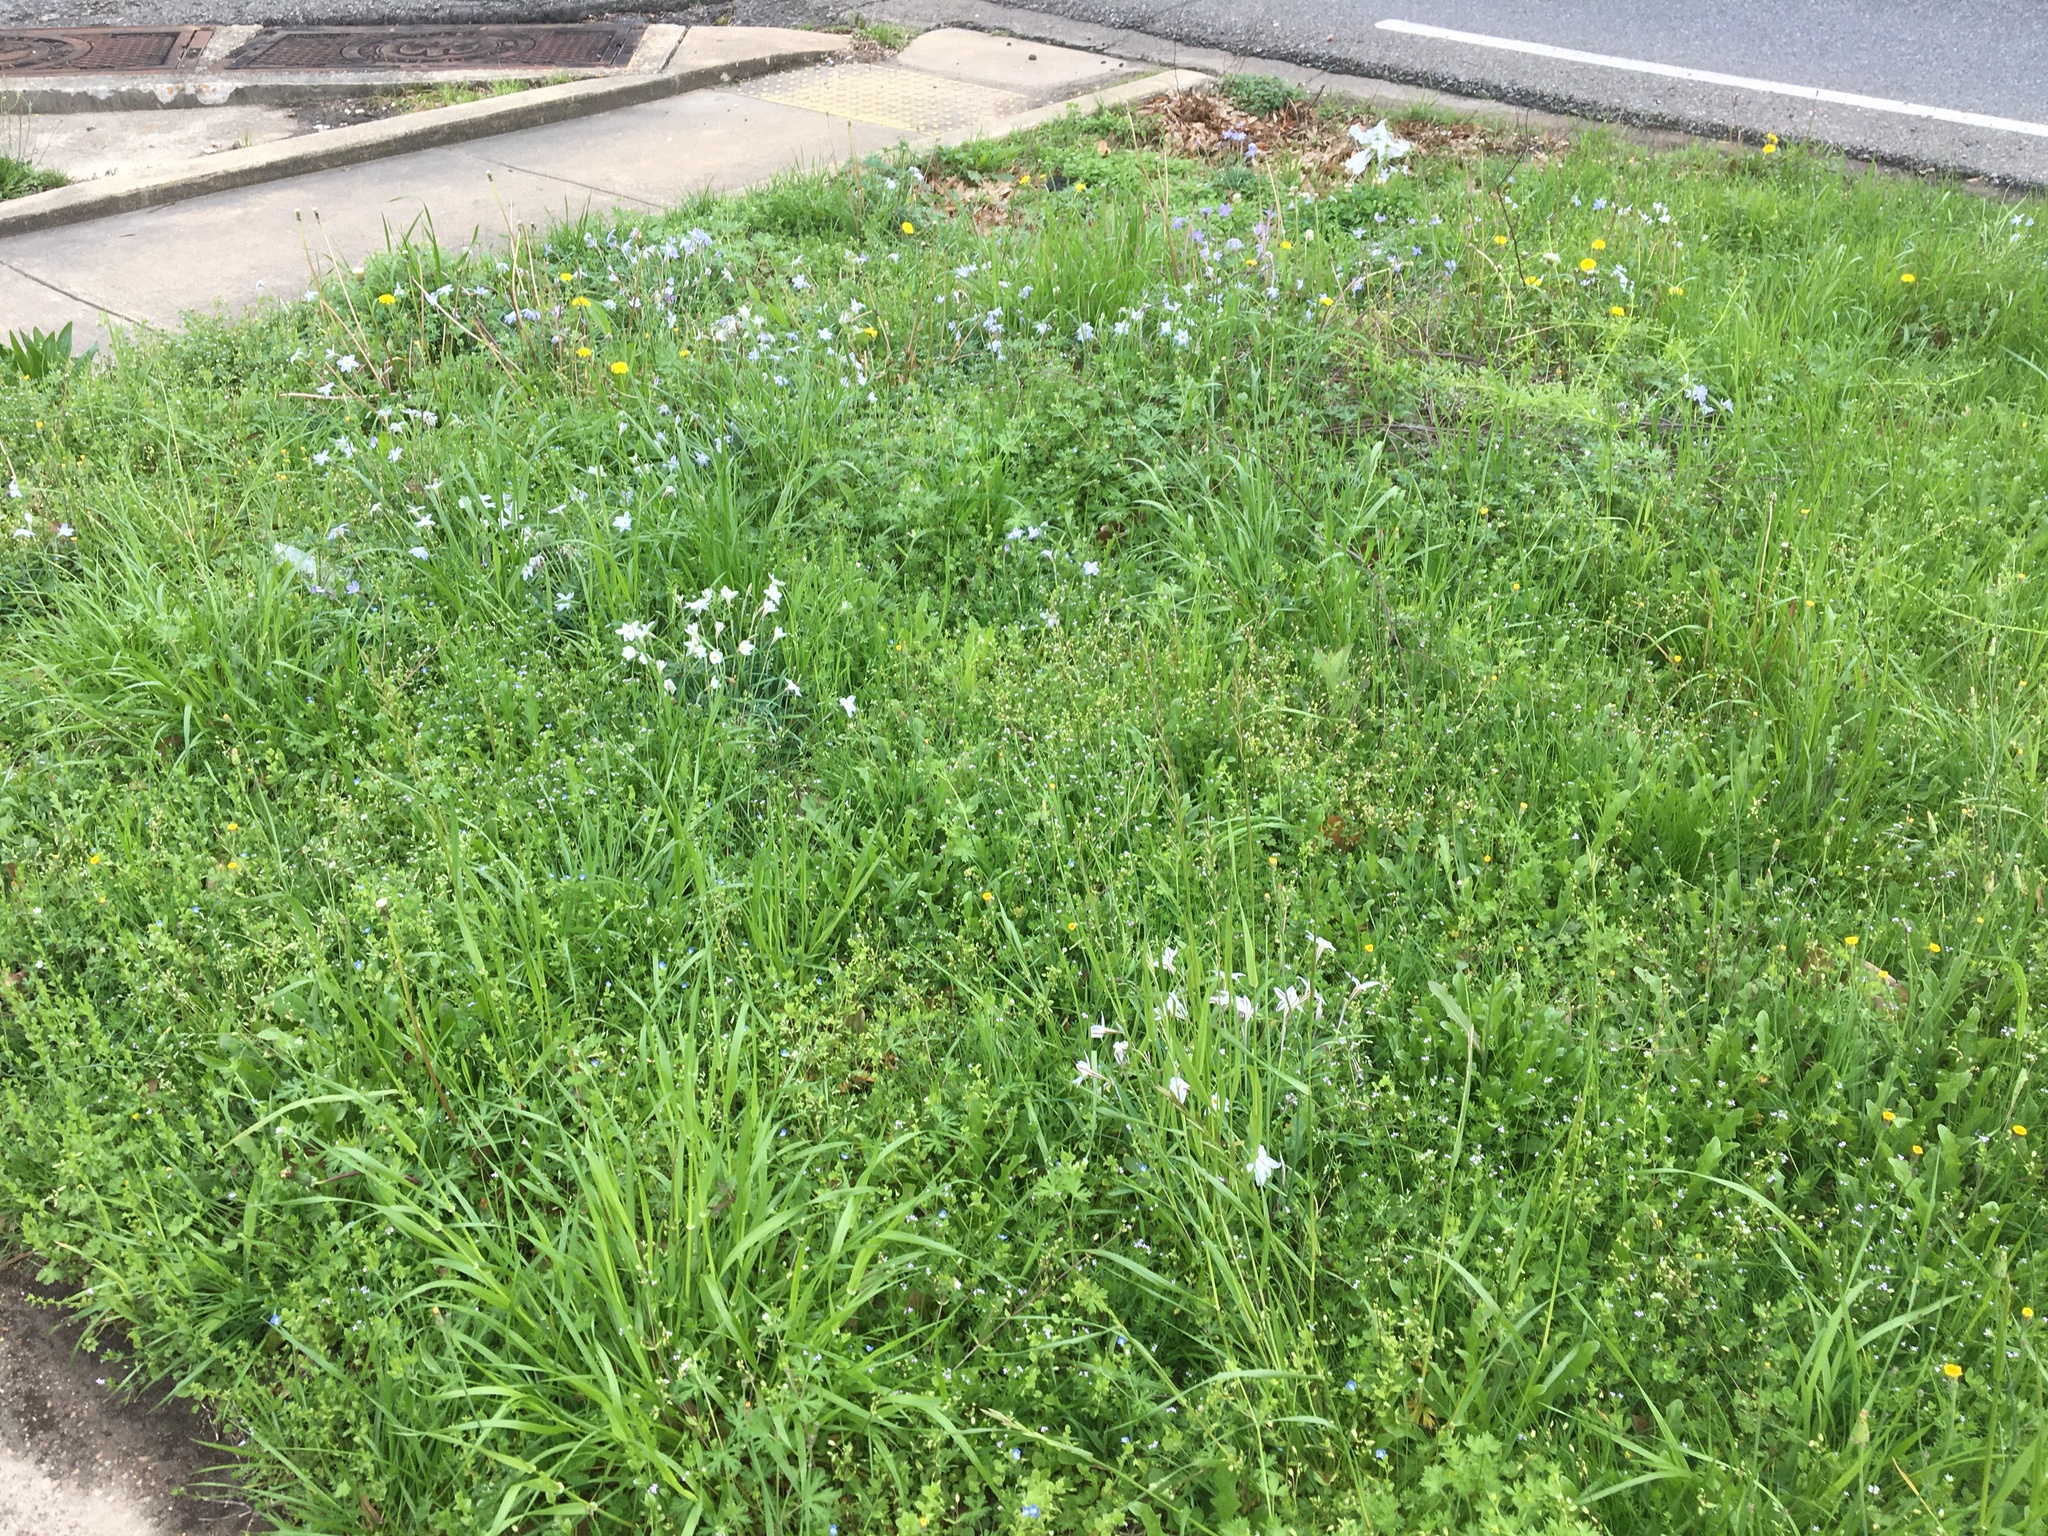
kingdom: Plantae
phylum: Tracheophyta
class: Liliopsida
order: Asparagales
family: Amaryllidaceae
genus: Ipheion
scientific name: Ipheion uniflorum
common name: Spring starflower
